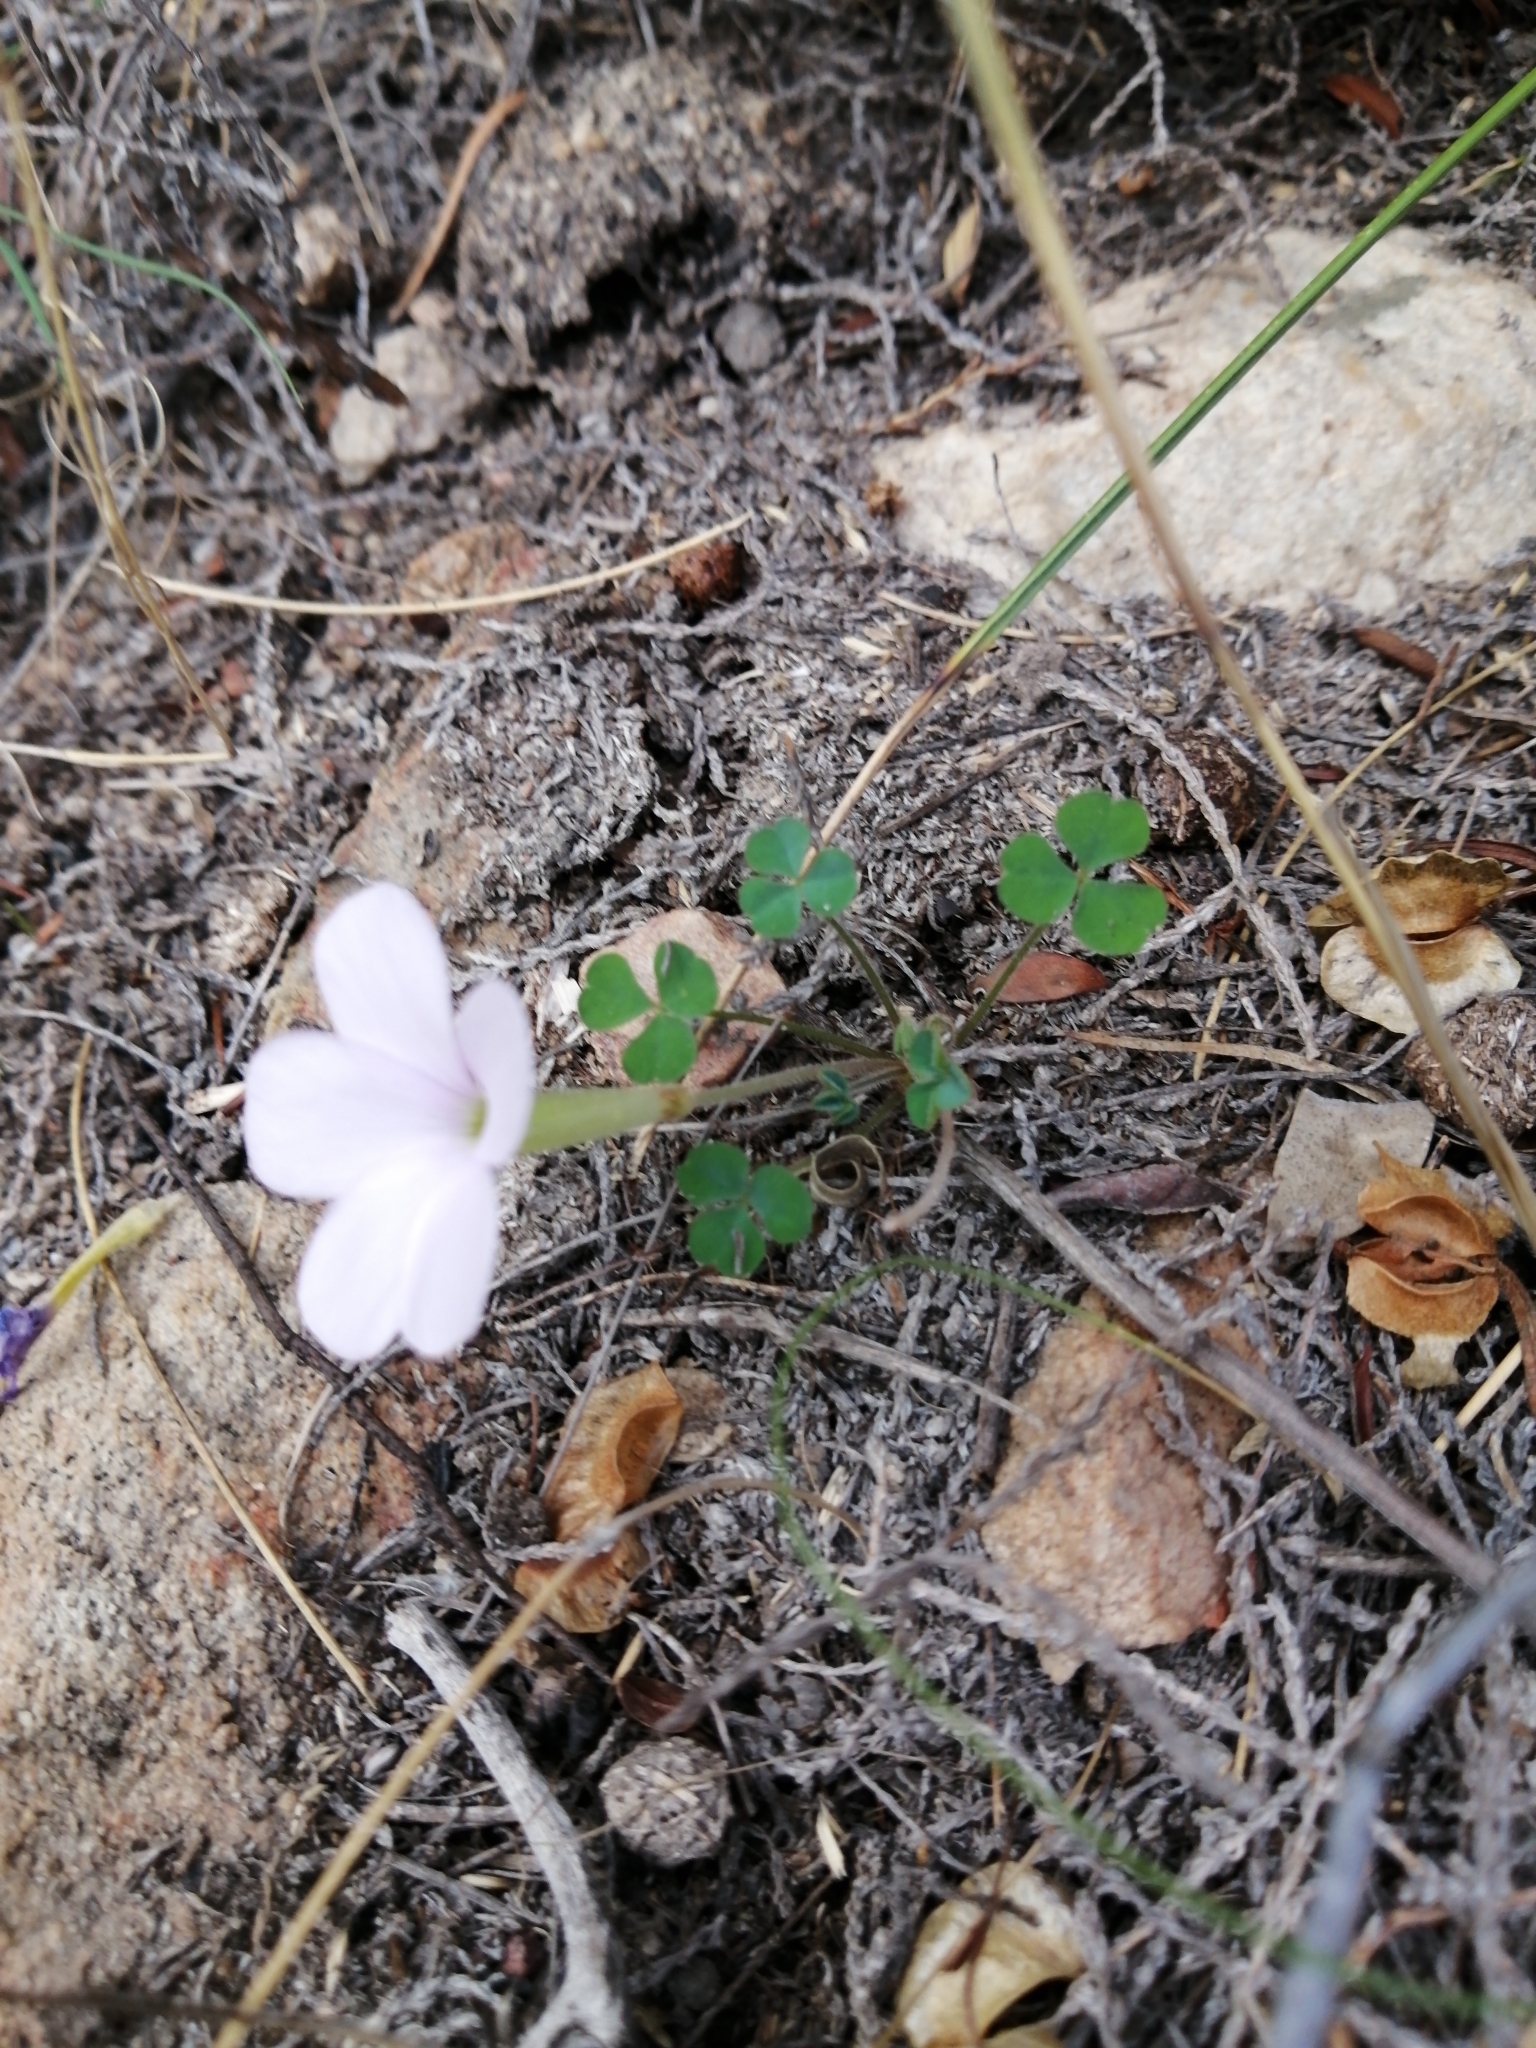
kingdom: Plantae
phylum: Tracheophyta
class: Magnoliopsida
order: Oxalidales
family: Oxalidaceae
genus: Oxalis
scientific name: Oxalis fibrosa
